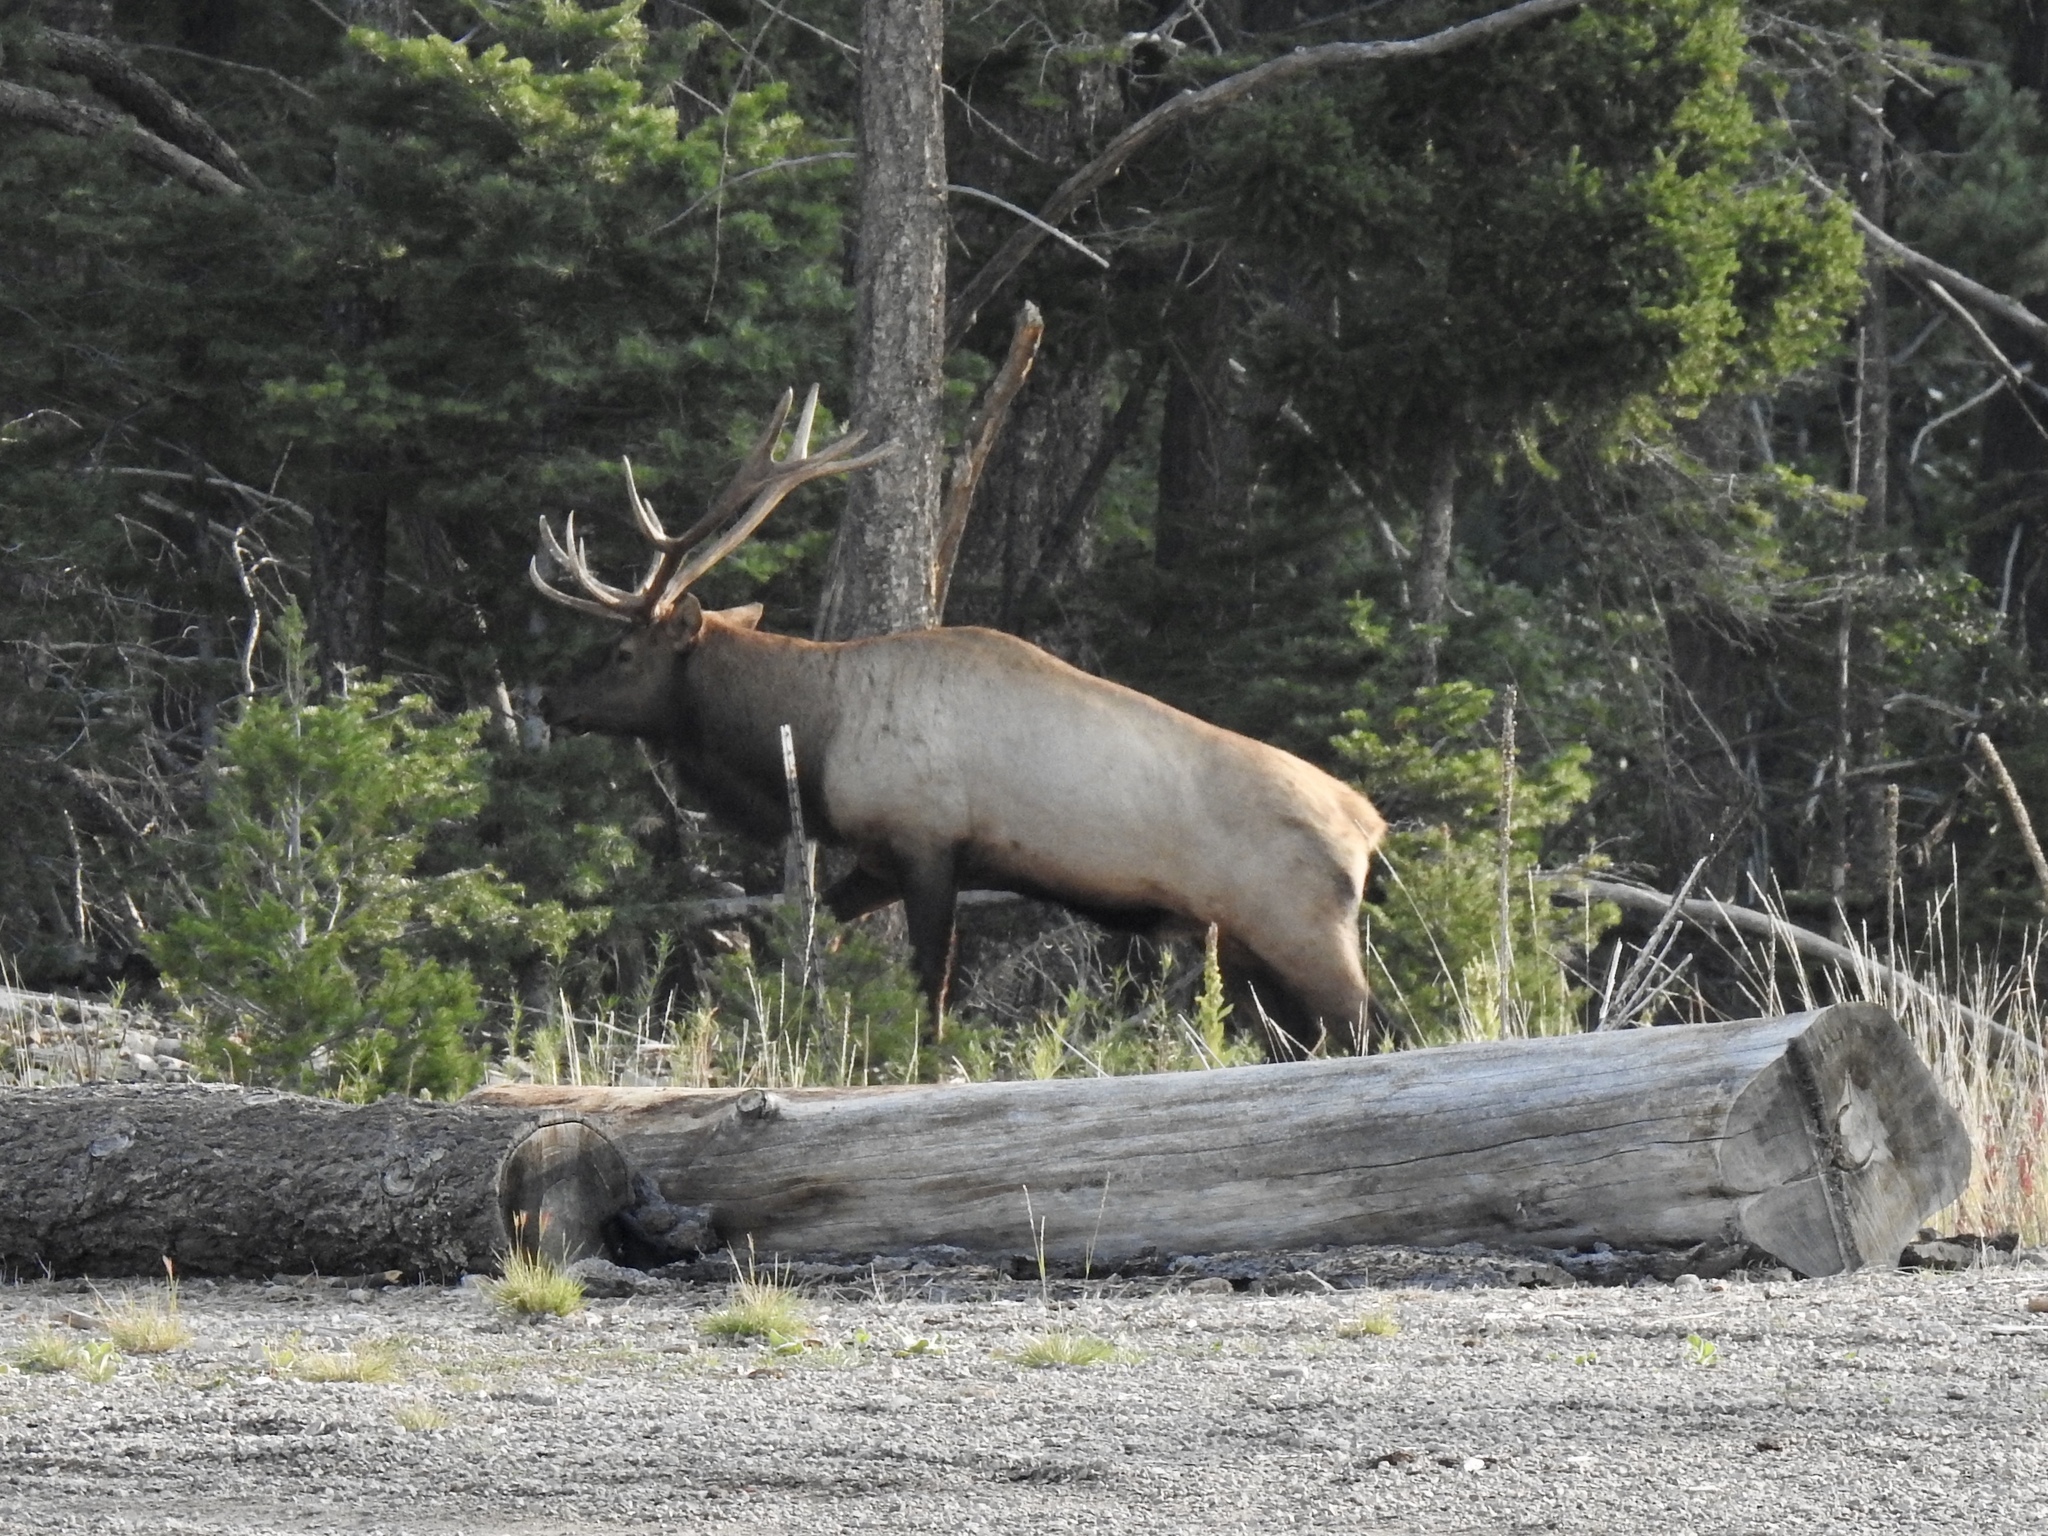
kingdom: Animalia
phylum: Chordata
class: Mammalia
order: Artiodactyla
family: Cervidae
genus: Cervus
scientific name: Cervus elaphus
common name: Red deer
